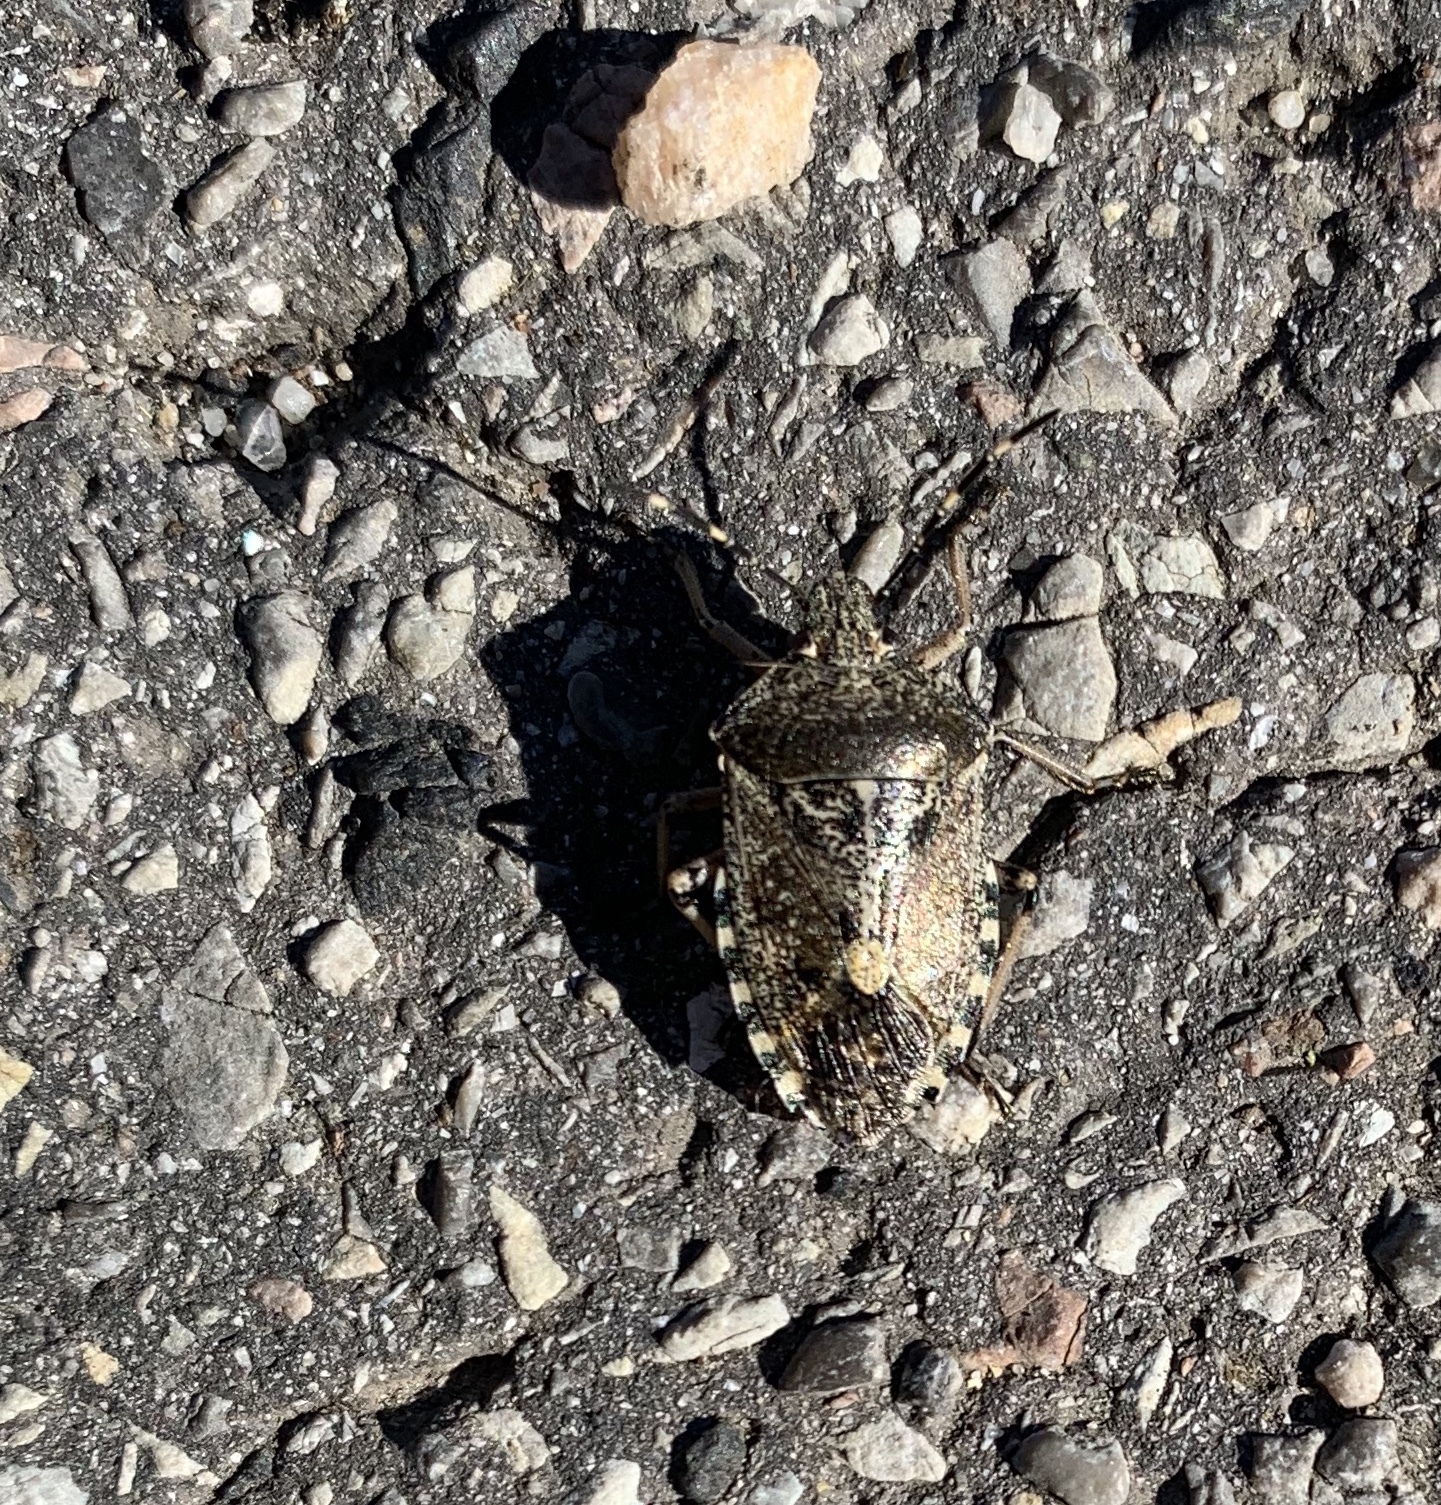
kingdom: Animalia
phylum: Arthropoda
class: Insecta
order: Hemiptera
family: Pentatomidae
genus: Rhaphigaster
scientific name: Rhaphigaster nebulosa
